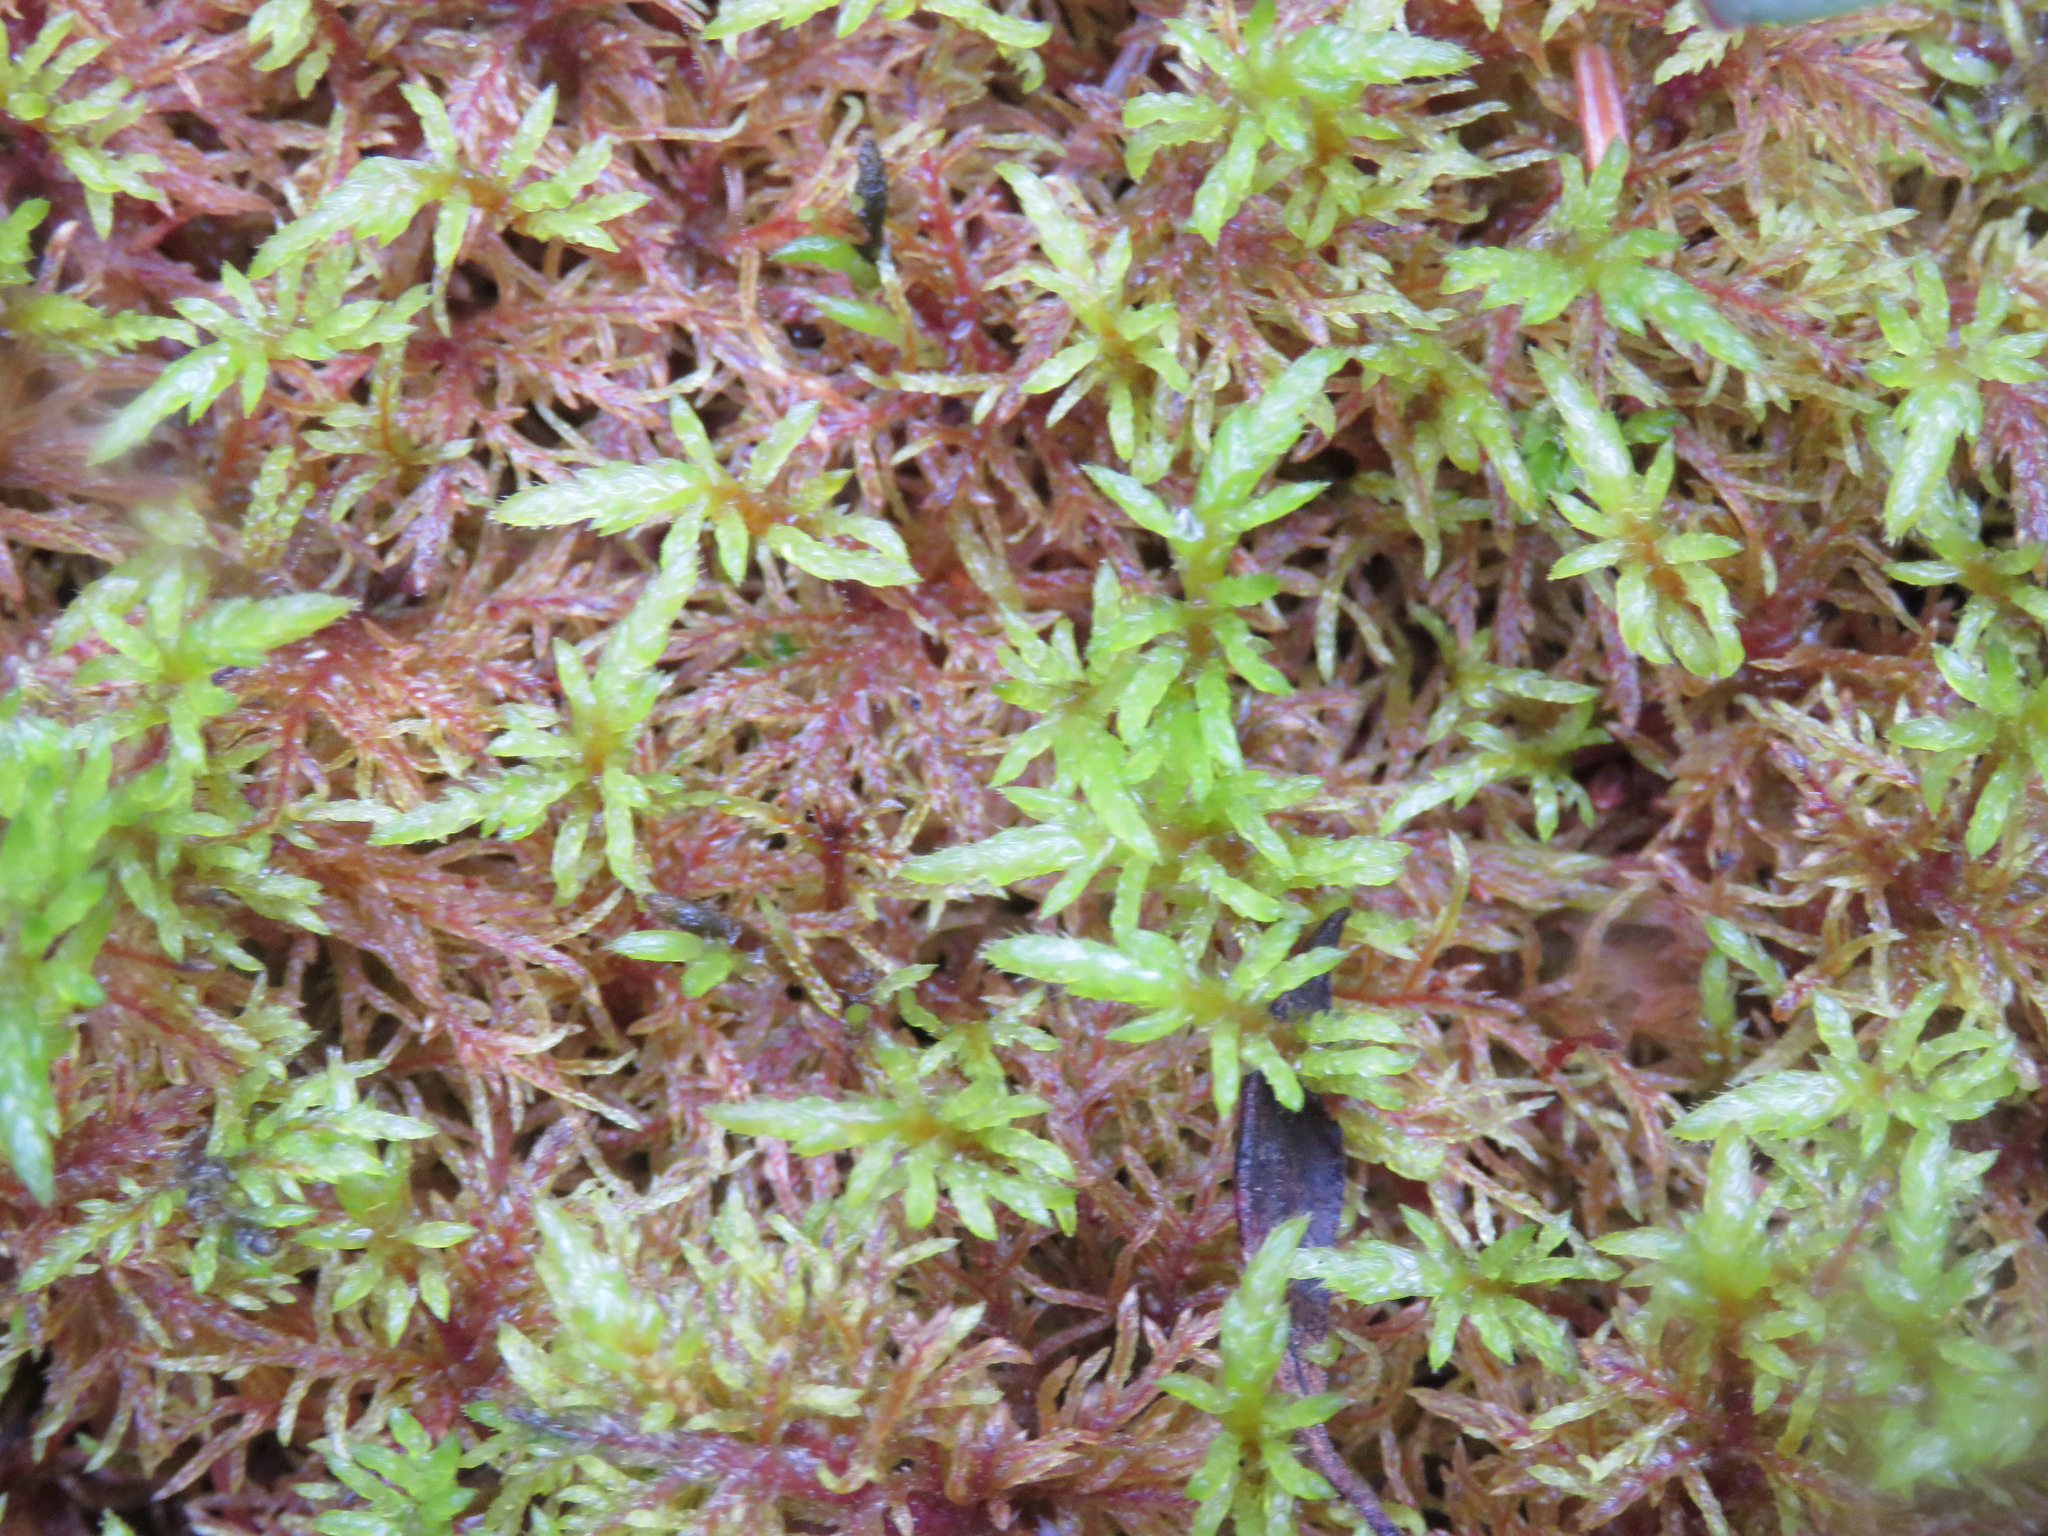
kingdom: Plantae
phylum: Bryophyta
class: Bryopsida
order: Hypnales
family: Hylocomiaceae
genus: Hylocomium
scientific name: Hylocomium splendens
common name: Stairstep moss
